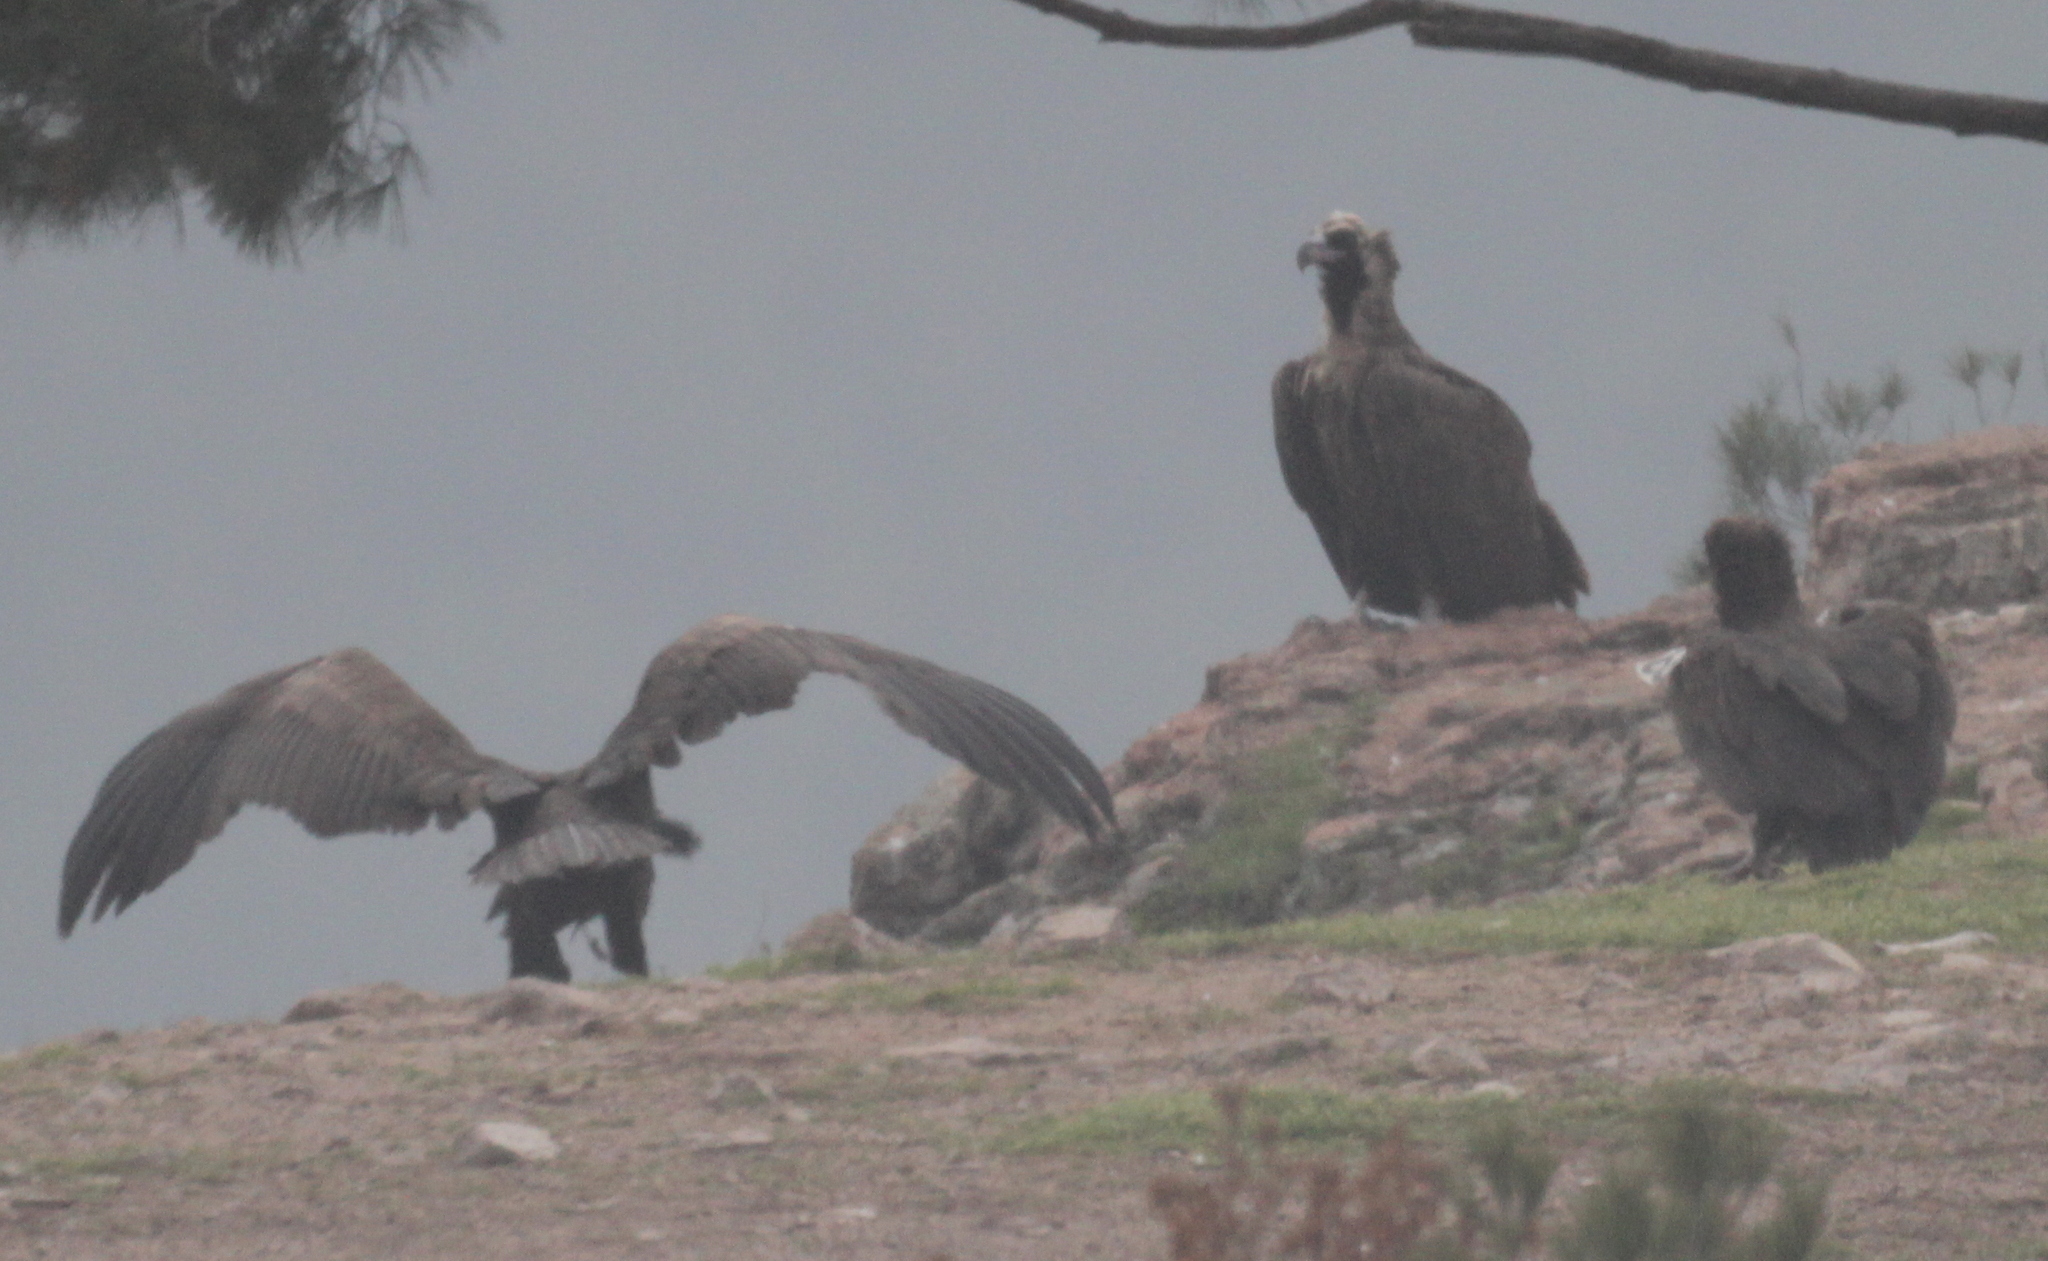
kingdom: Animalia
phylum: Chordata
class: Aves
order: Accipitriformes
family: Accipitridae
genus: Aegypius
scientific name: Aegypius monachus
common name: Cinereous vulture
